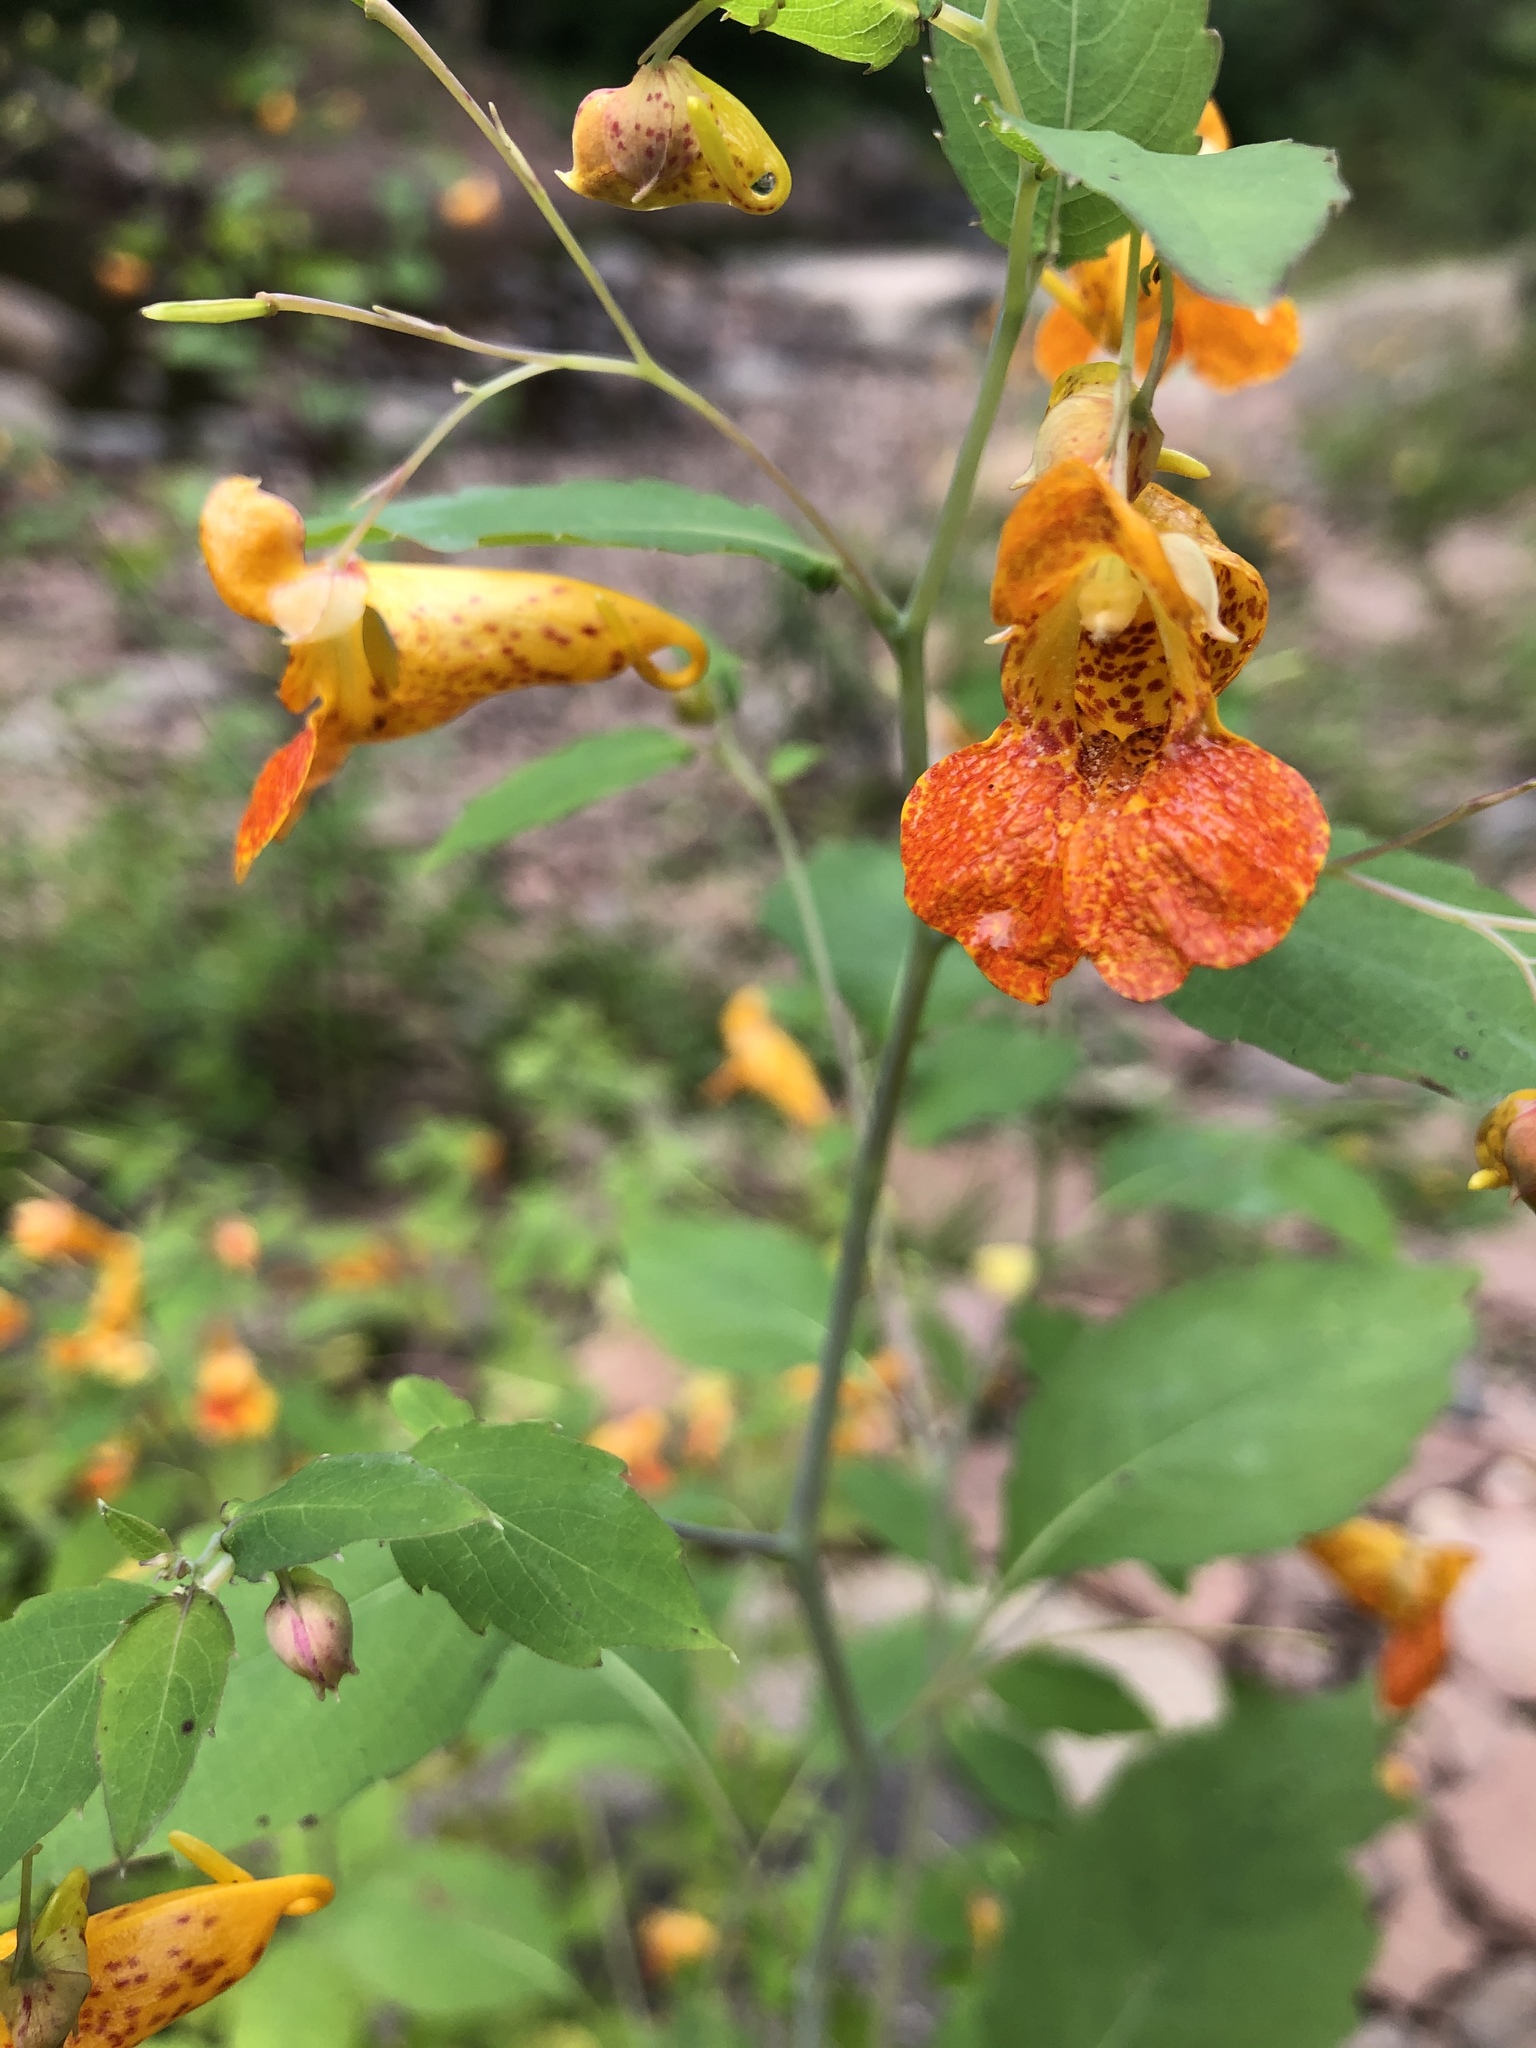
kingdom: Plantae
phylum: Tracheophyta
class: Magnoliopsida
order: Ericales
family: Balsaminaceae
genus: Impatiens
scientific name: Impatiens capensis
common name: Orange balsam
